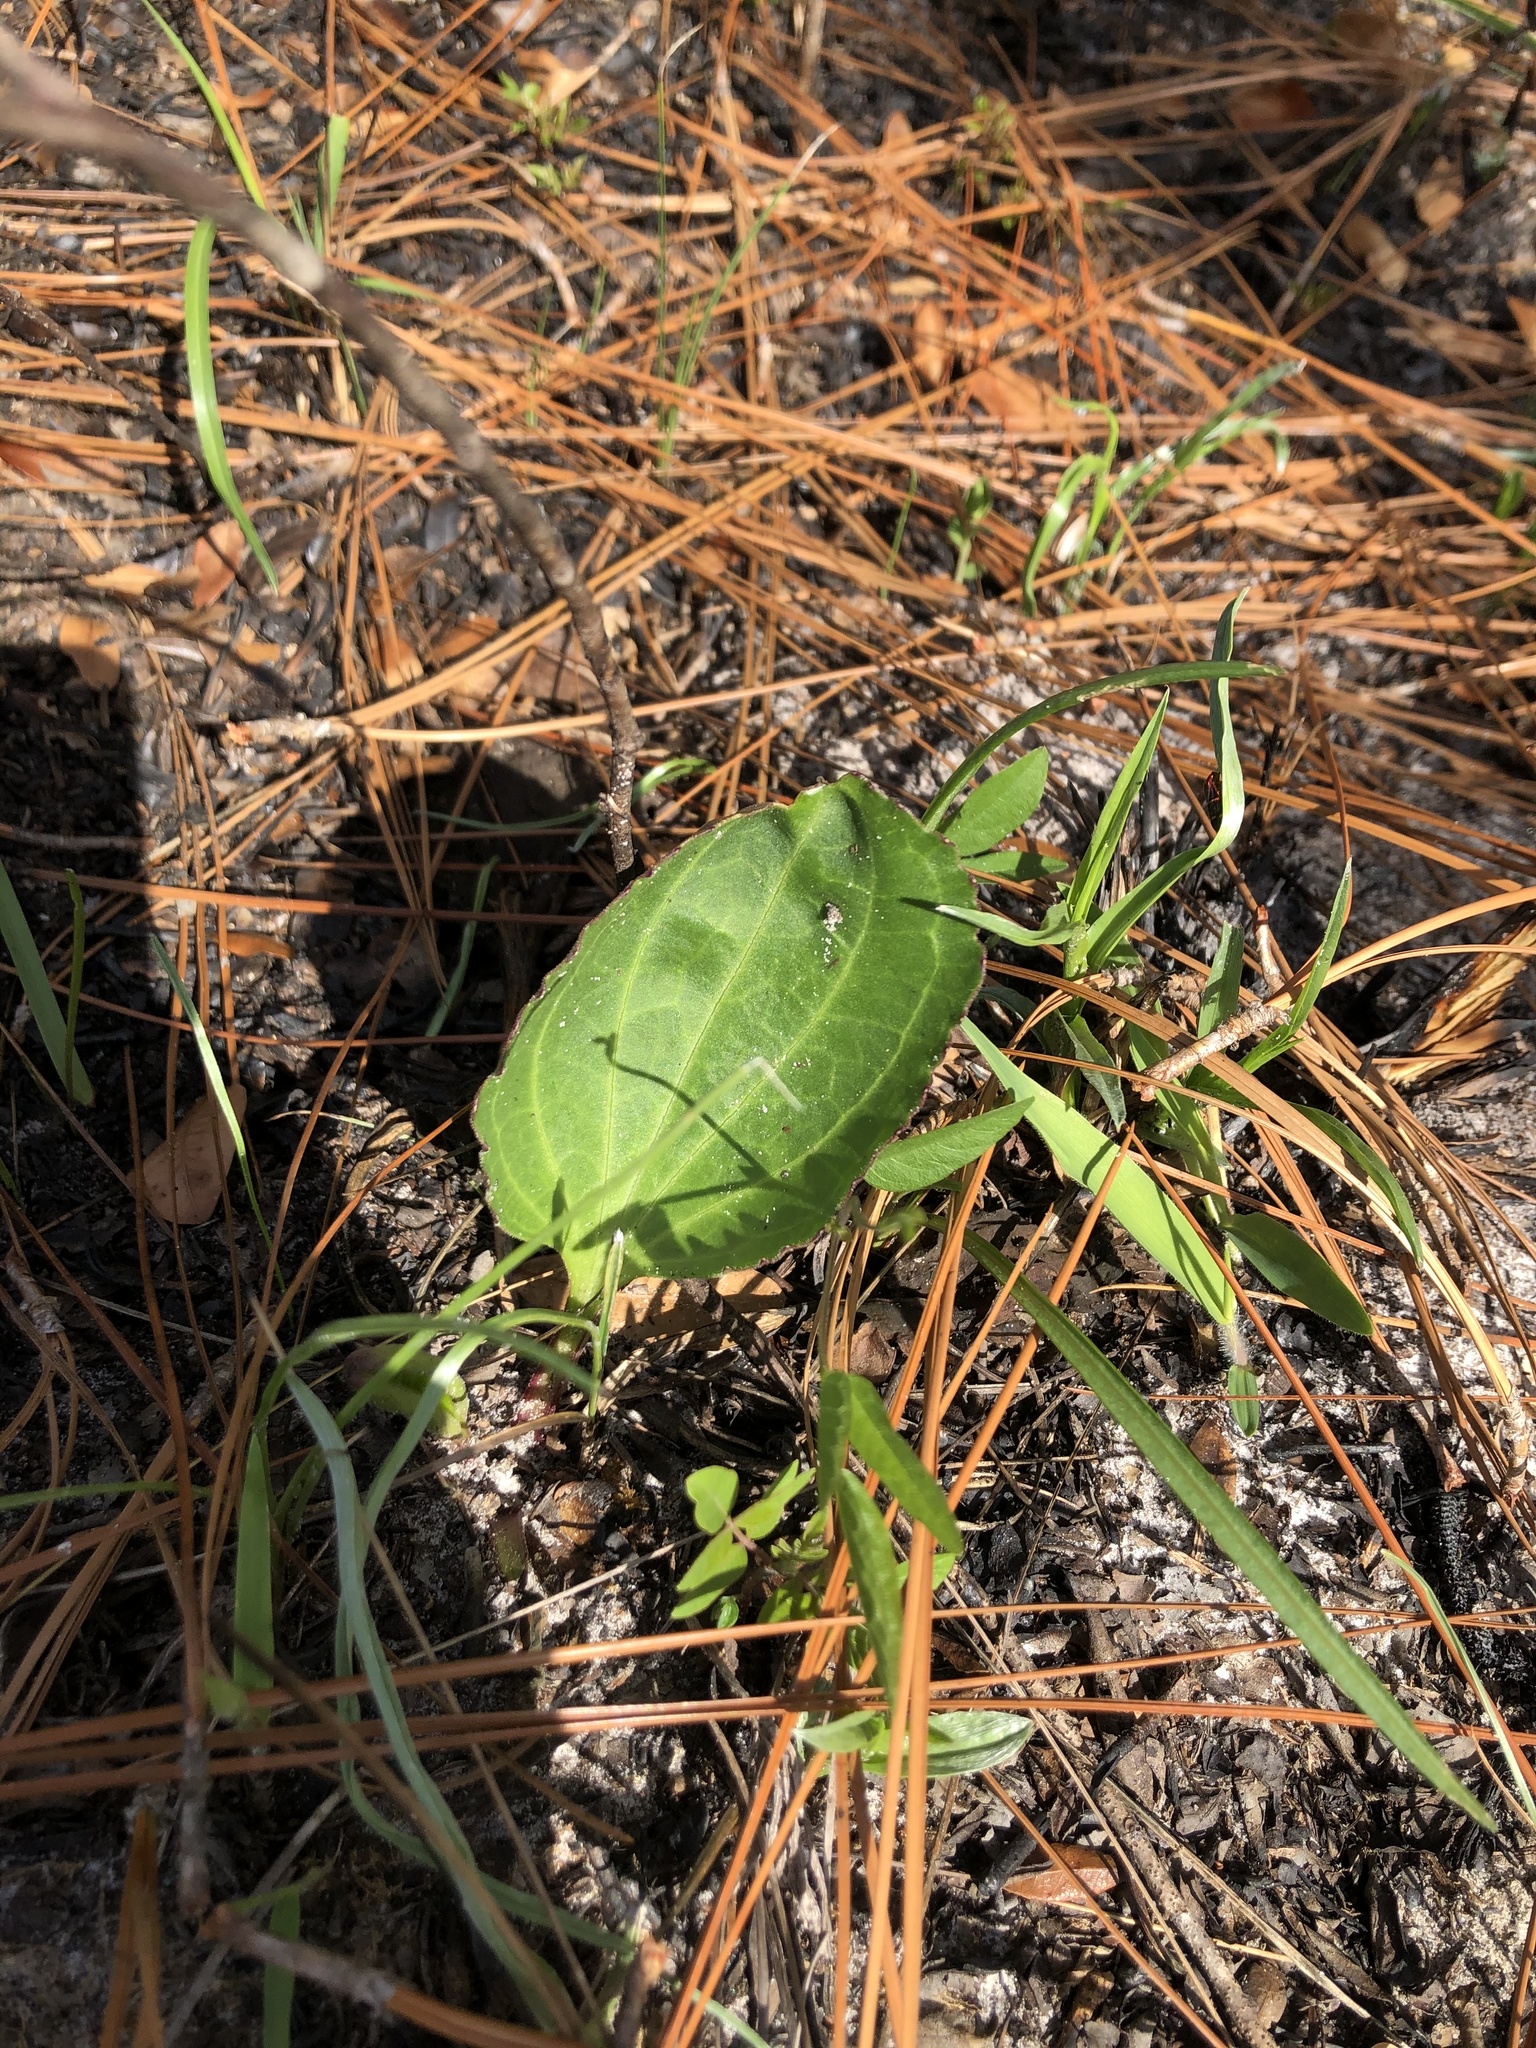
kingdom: Plantae
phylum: Tracheophyta
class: Magnoliopsida
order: Asterales
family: Asteraceae
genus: Arnoglossum
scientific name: Arnoglossum floridanum
